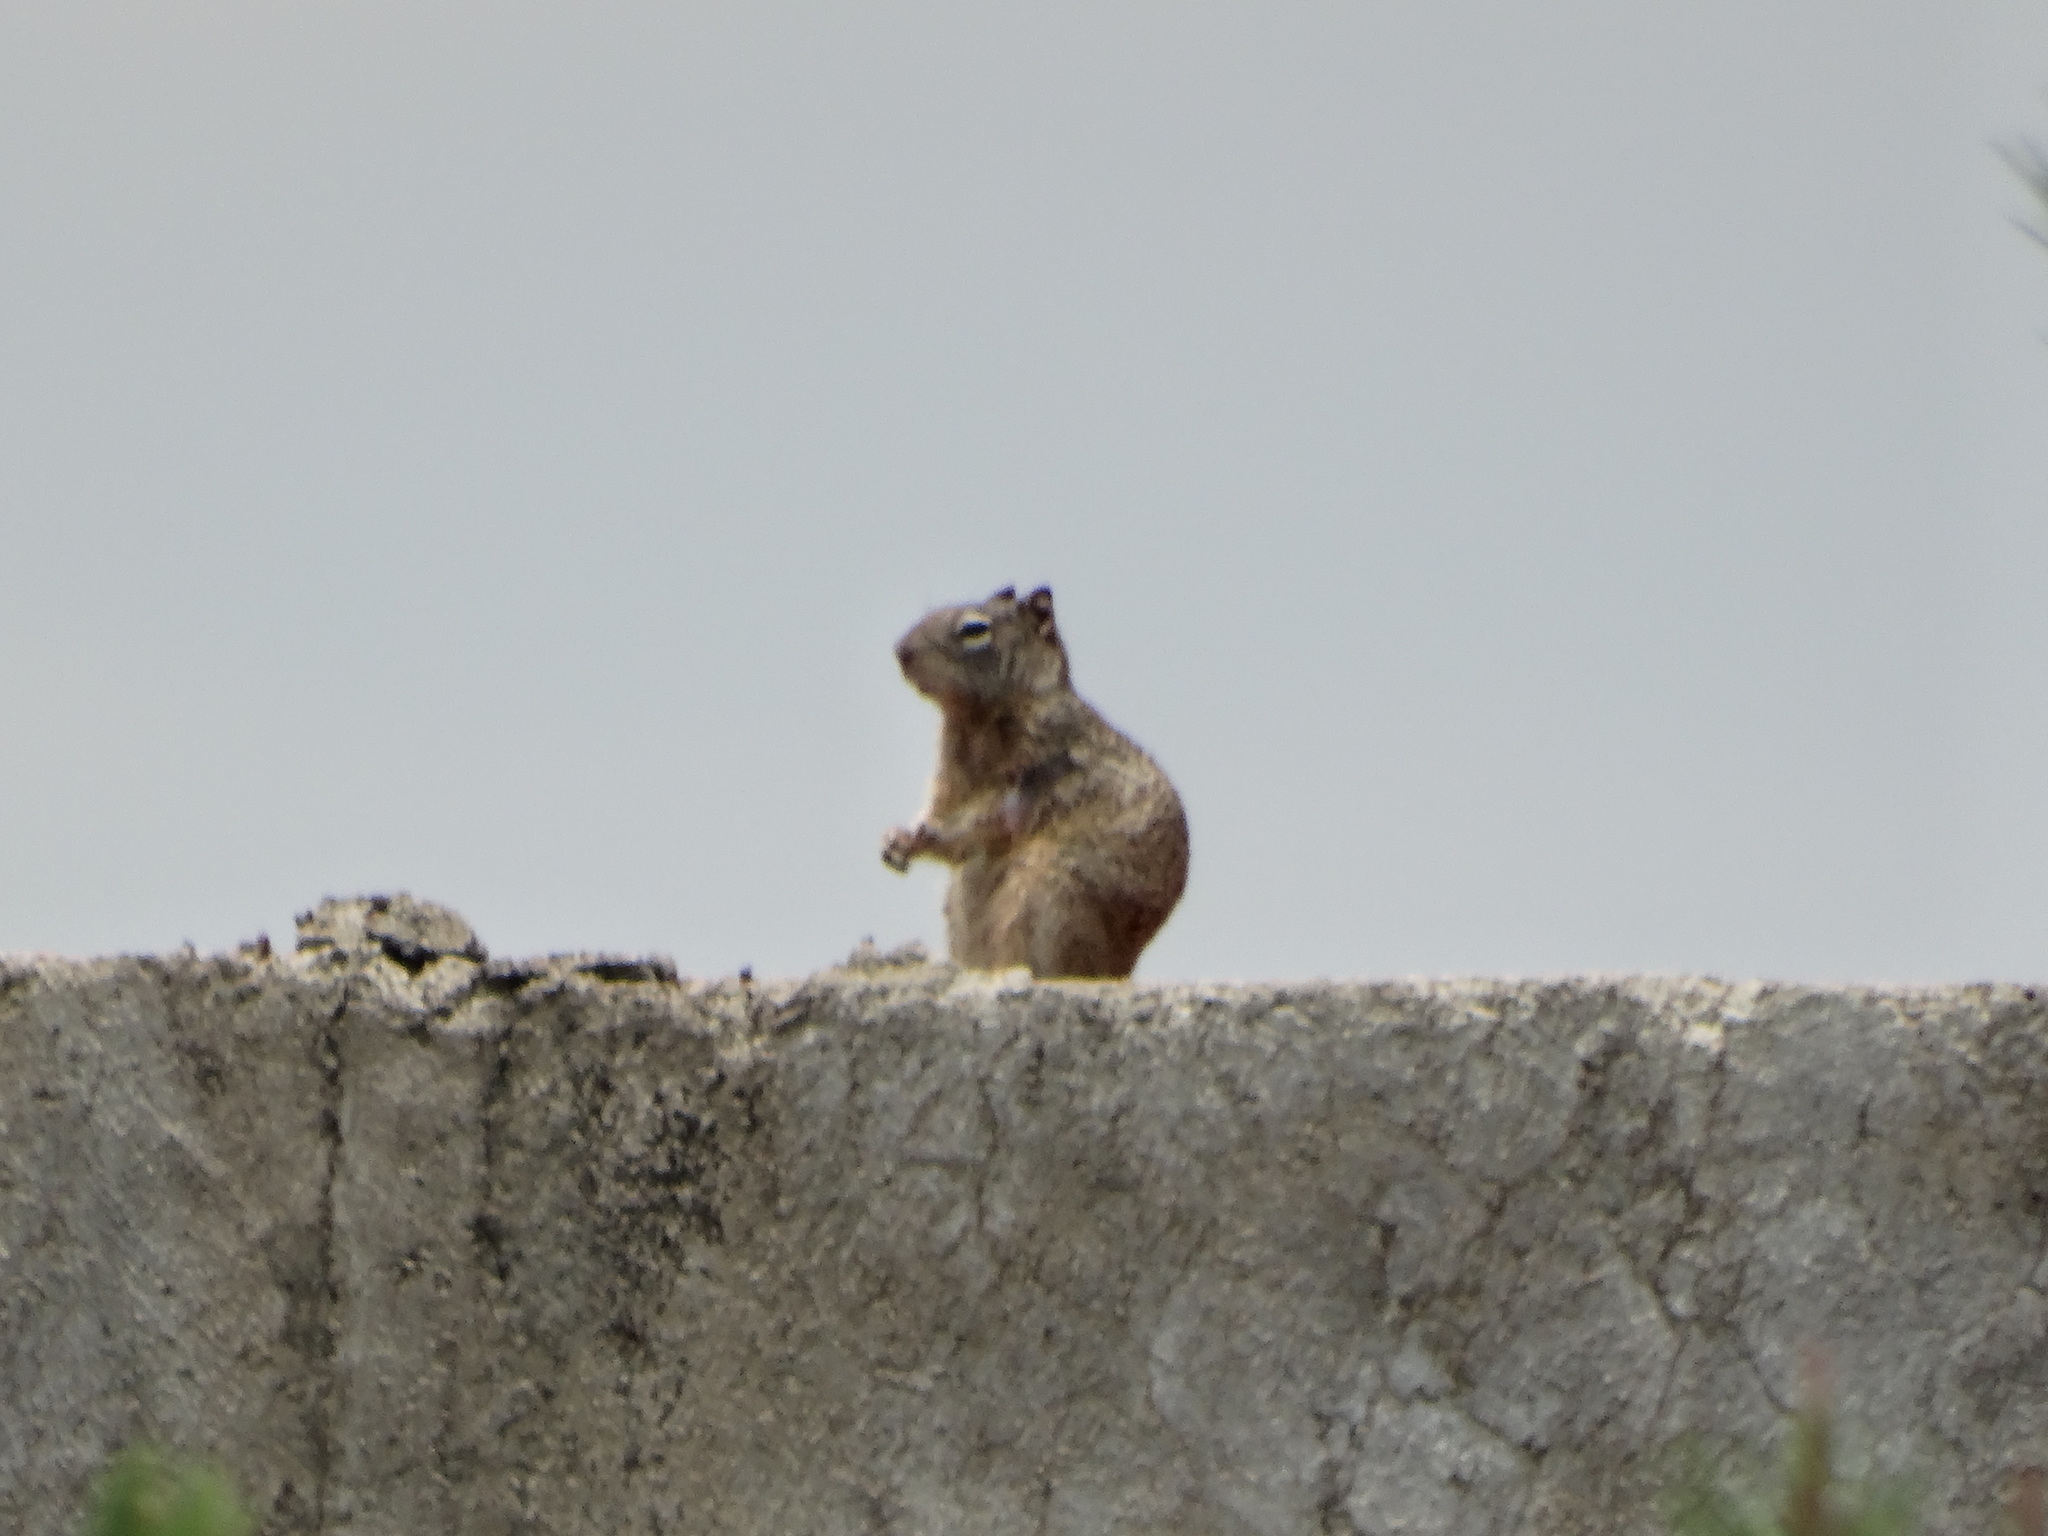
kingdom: Animalia
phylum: Chordata
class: Mammalia
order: Rodentia
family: Sciuridae
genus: Otospermophilus
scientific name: Otospermophilus variegatus
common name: Rock squirrel
